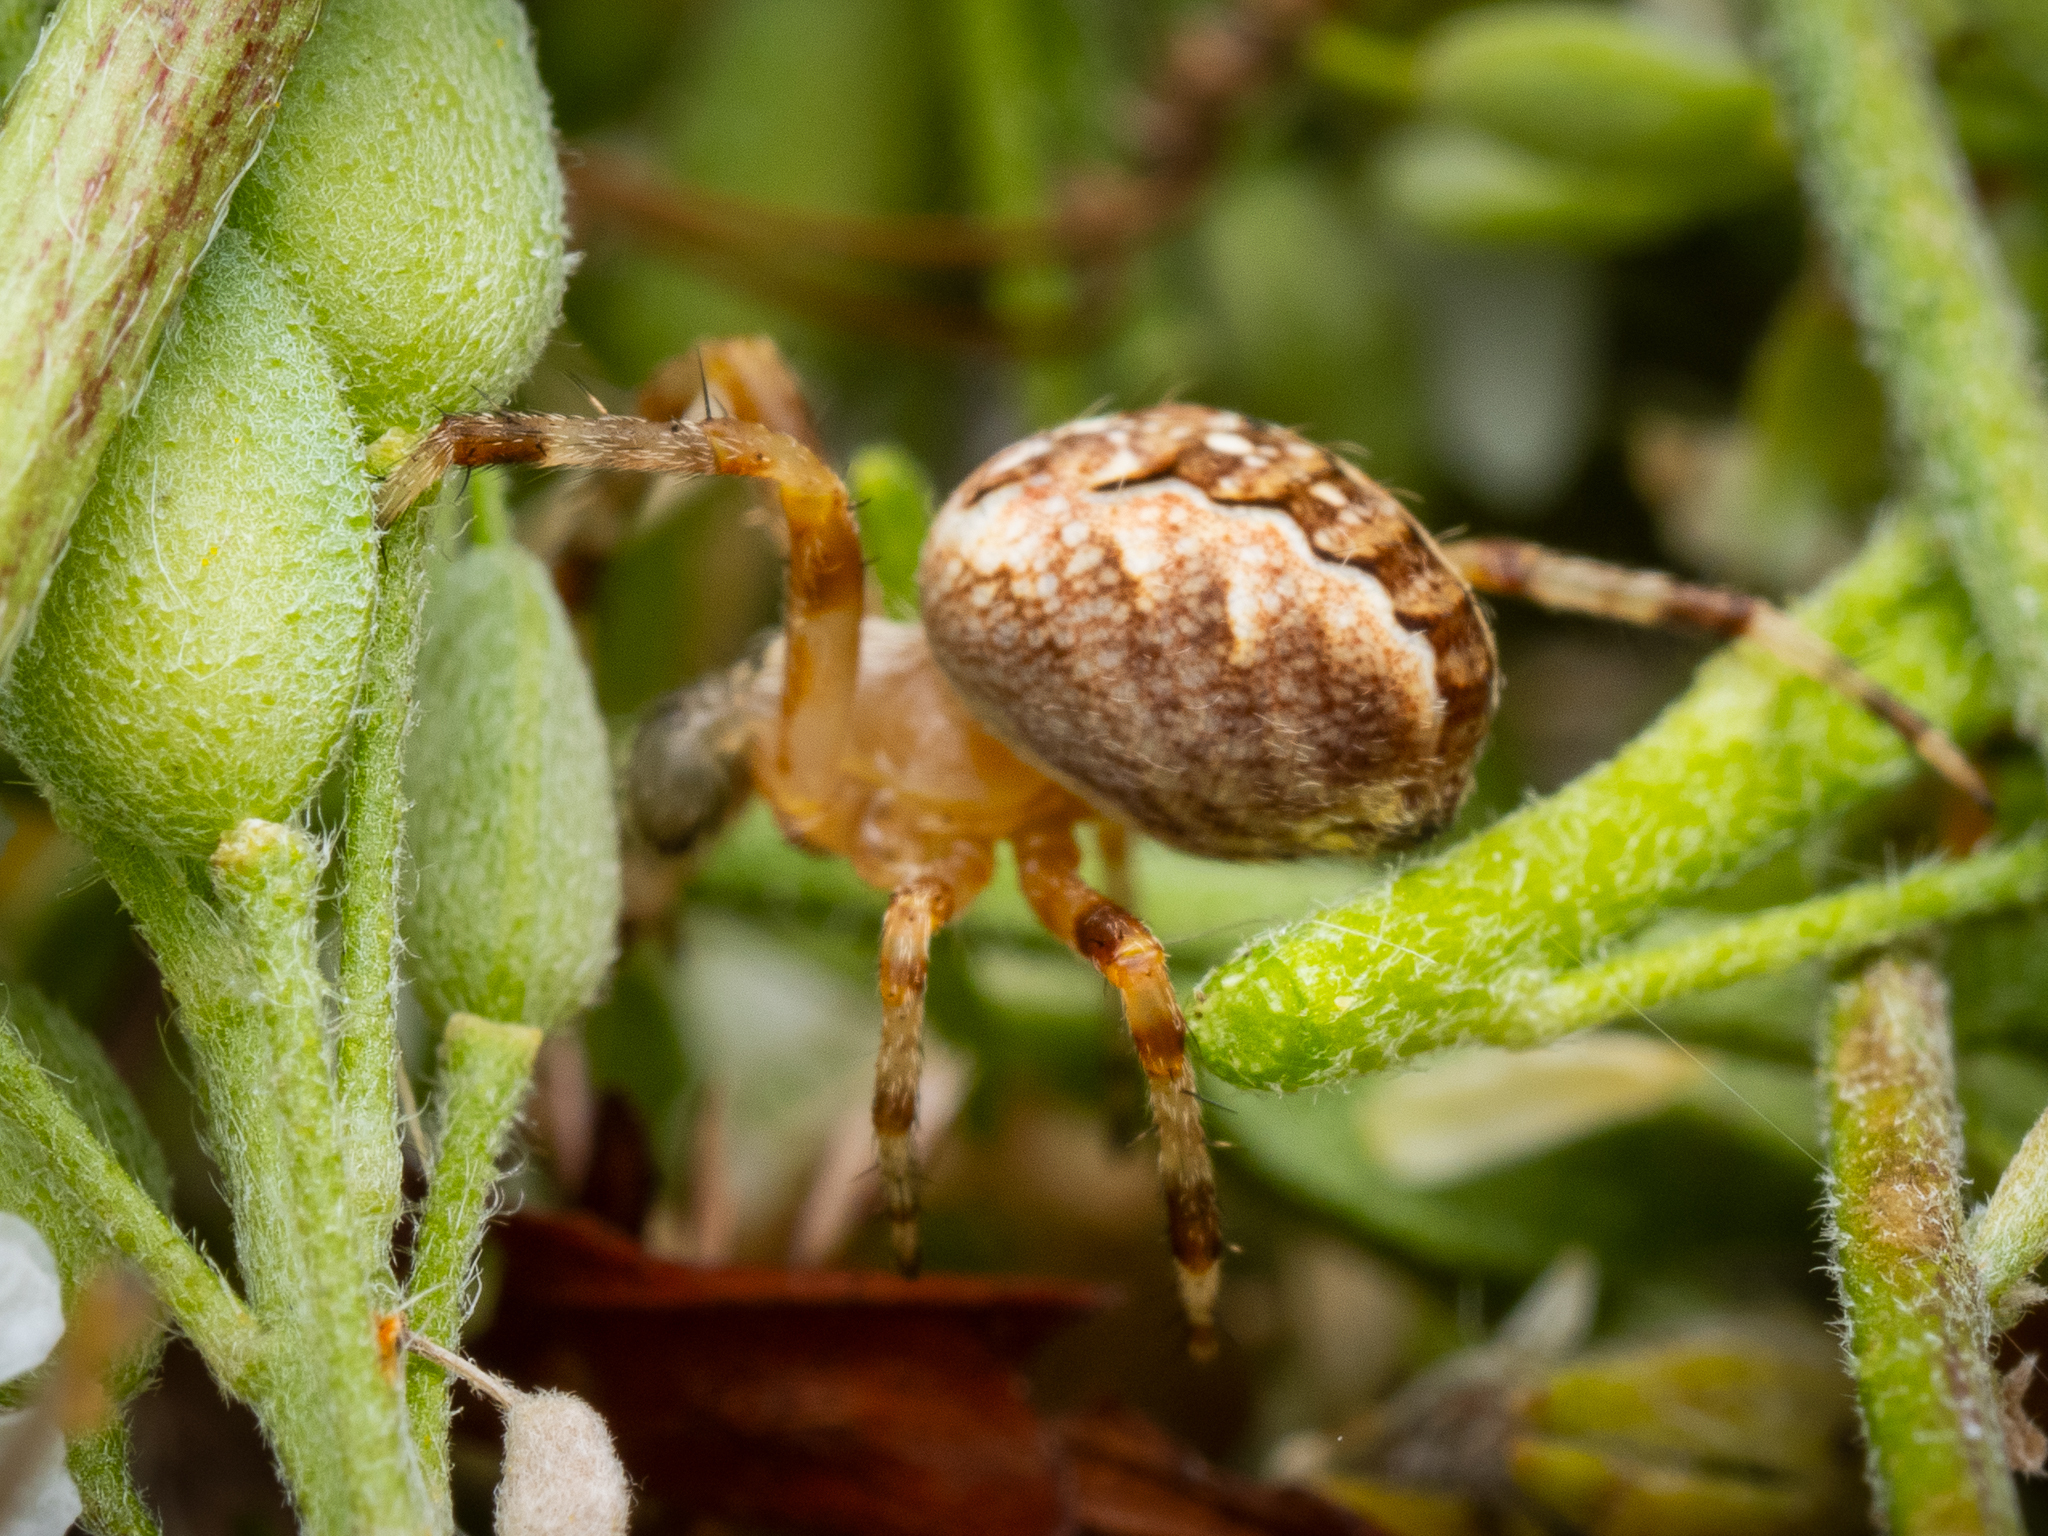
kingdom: Animalia
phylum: Arthropoda
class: Arachnida
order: Araneae
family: Araneidae
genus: Araneus
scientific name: Araneus diadematus
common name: Cross orbweaver
